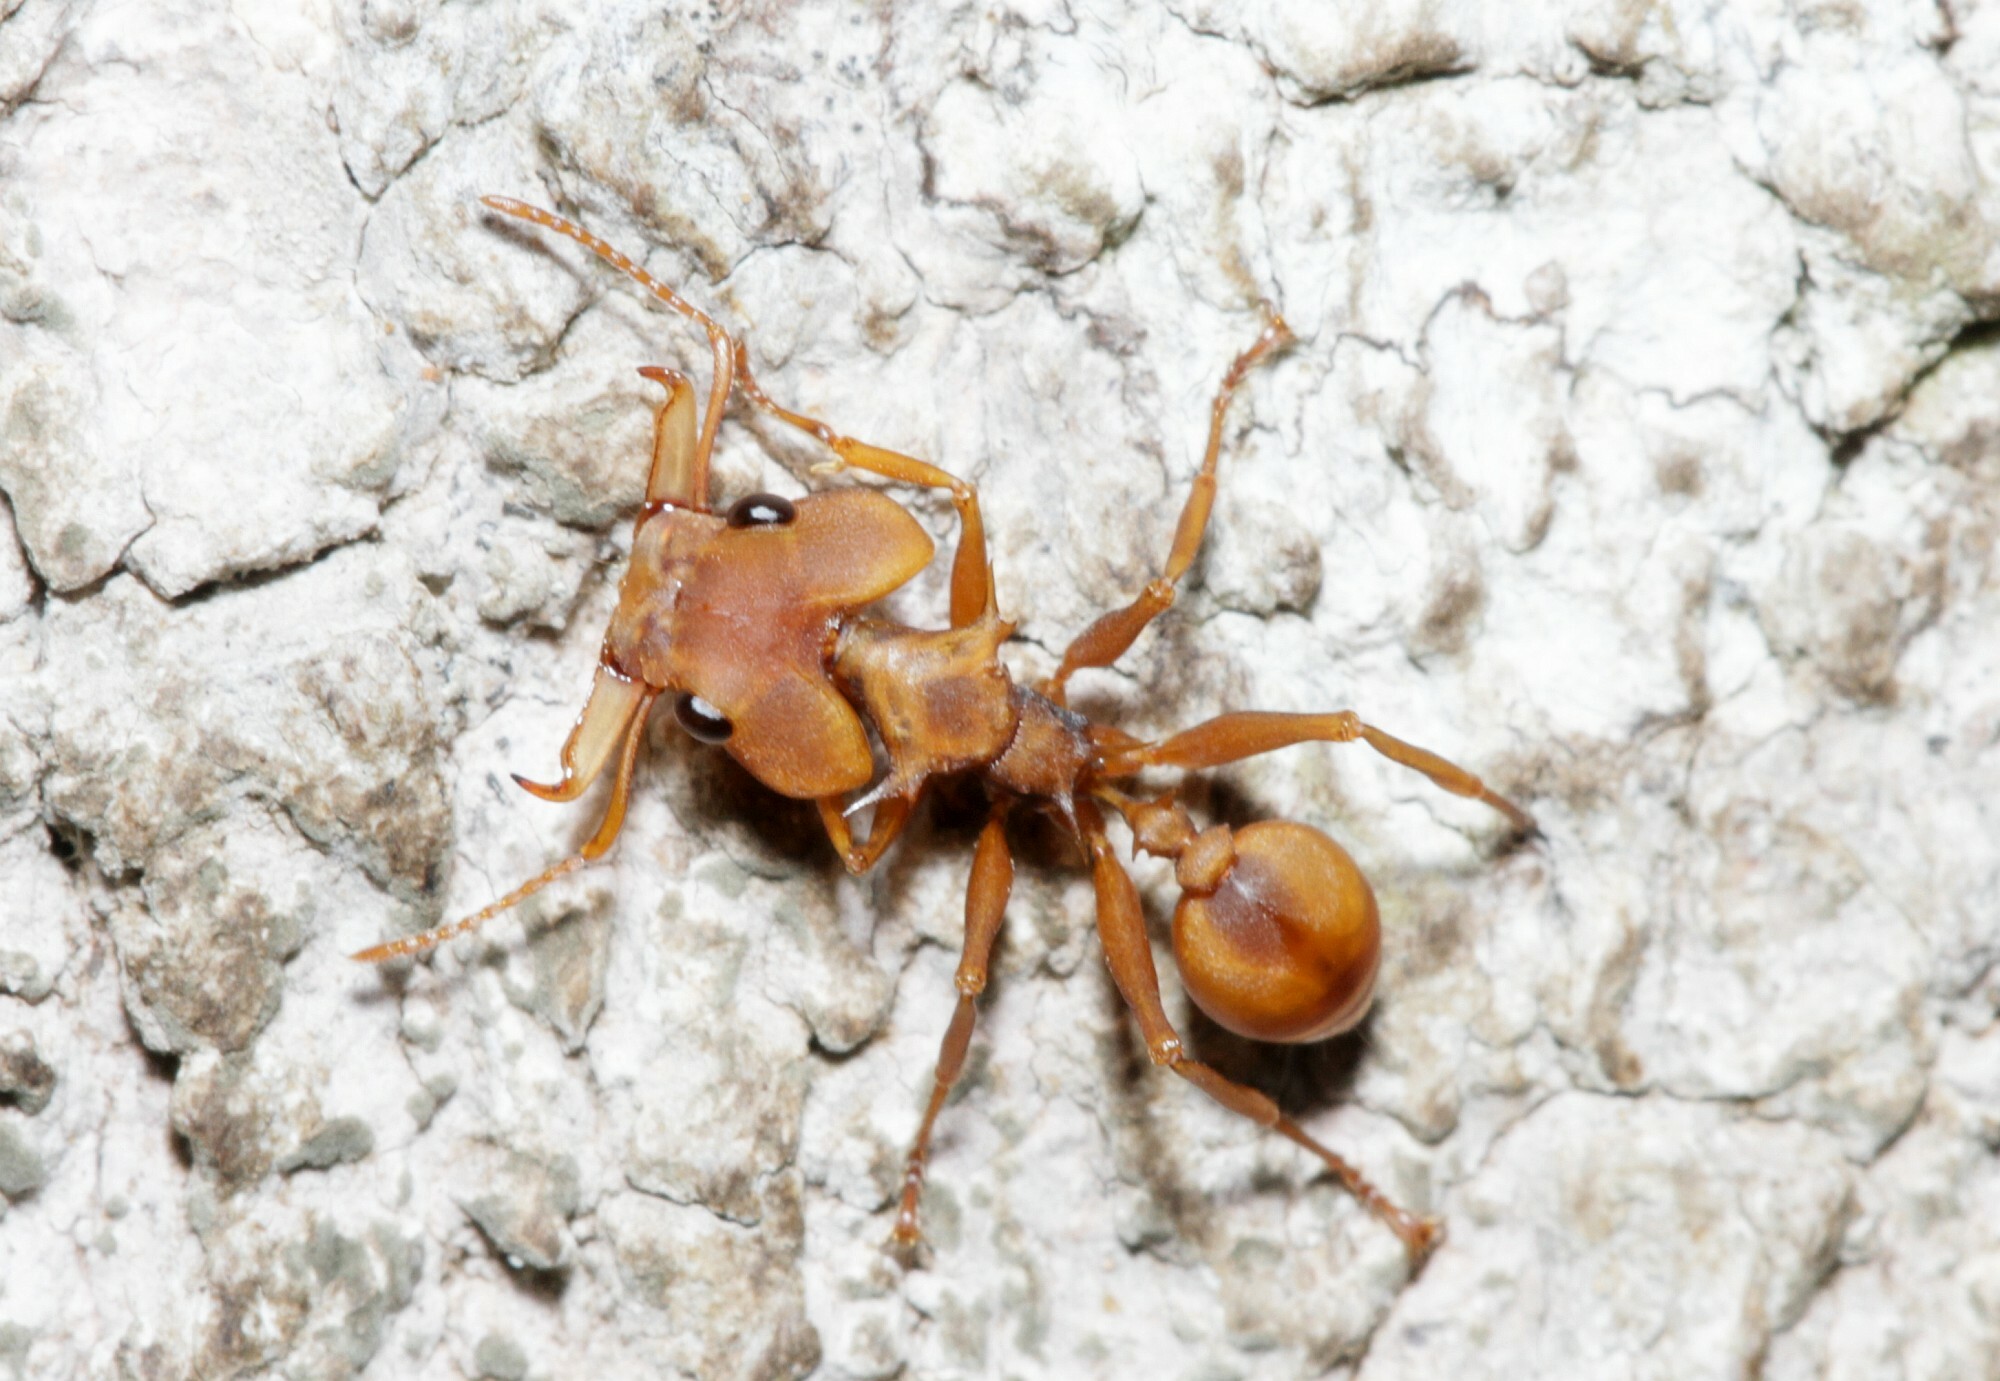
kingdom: Animalia
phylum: Arthropoda
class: Insecta
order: Hymenoptera
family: Formicidae
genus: Daceton
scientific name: Daceton armigerum
